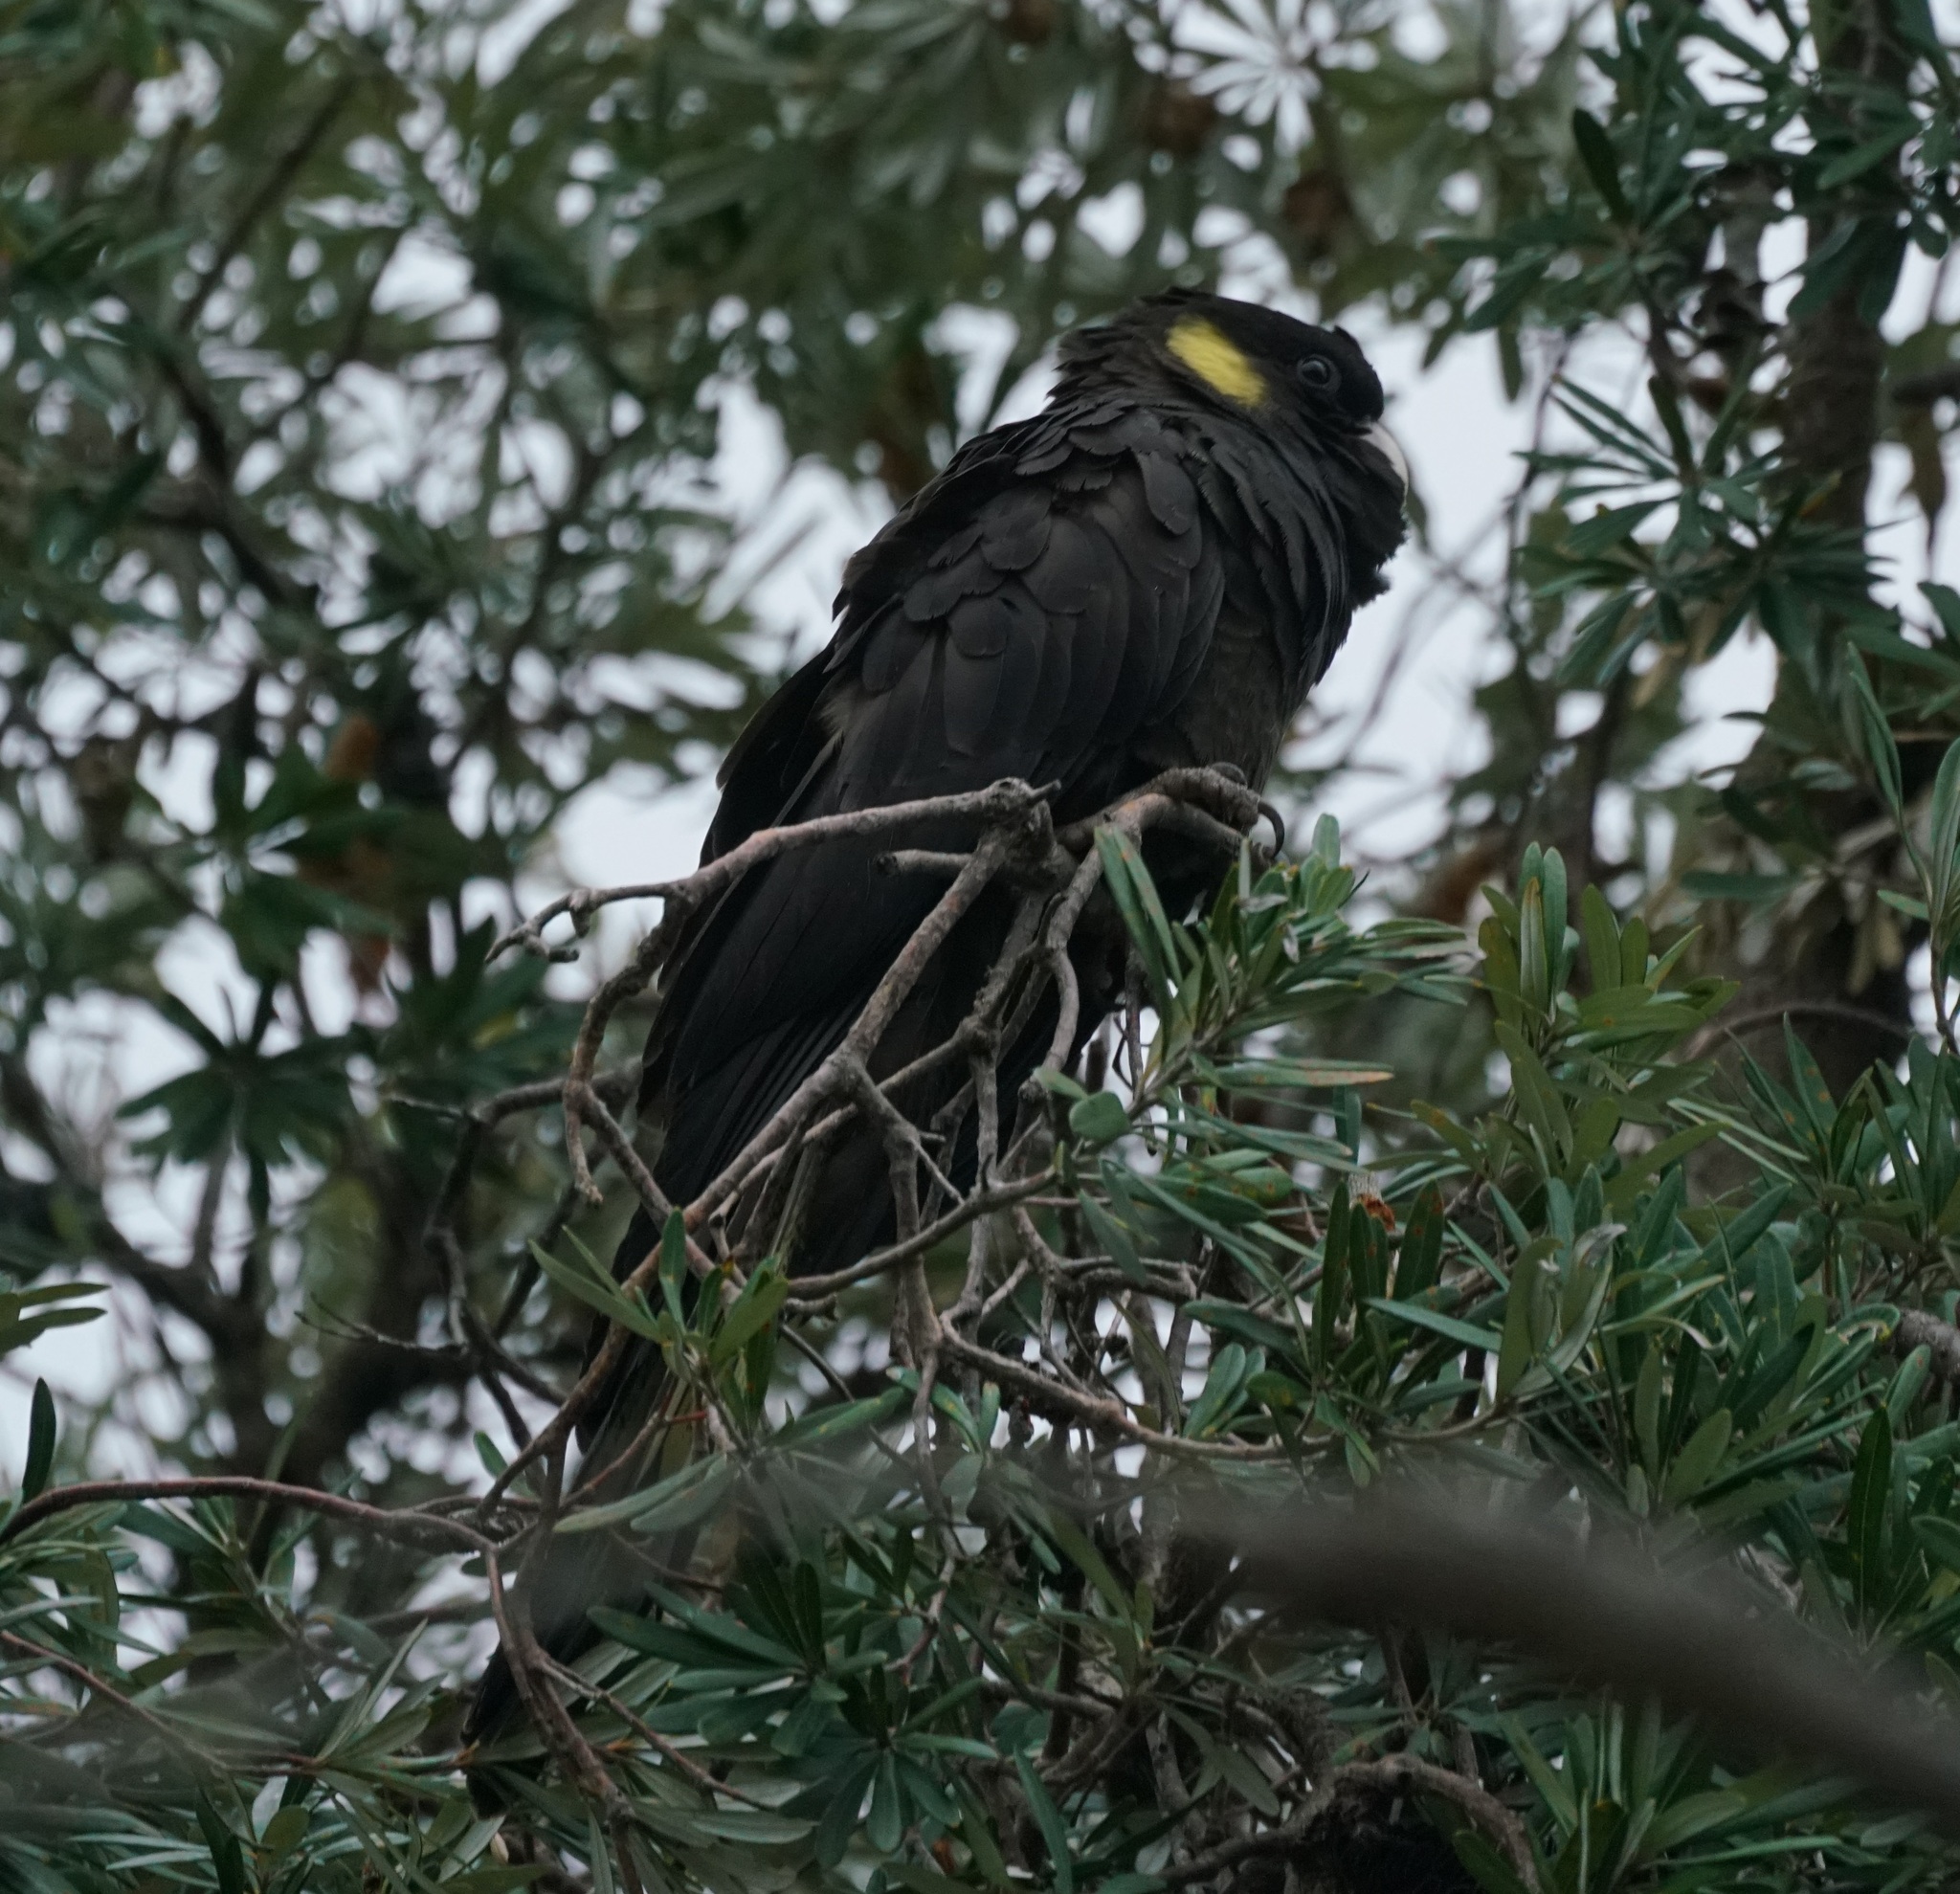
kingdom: Animalia
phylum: Chordata
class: Aves
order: Psittaciformes
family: Cacatuidae
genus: Zanda
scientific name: Zanda funerea
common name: Yellow-tailed black-cockatoo
